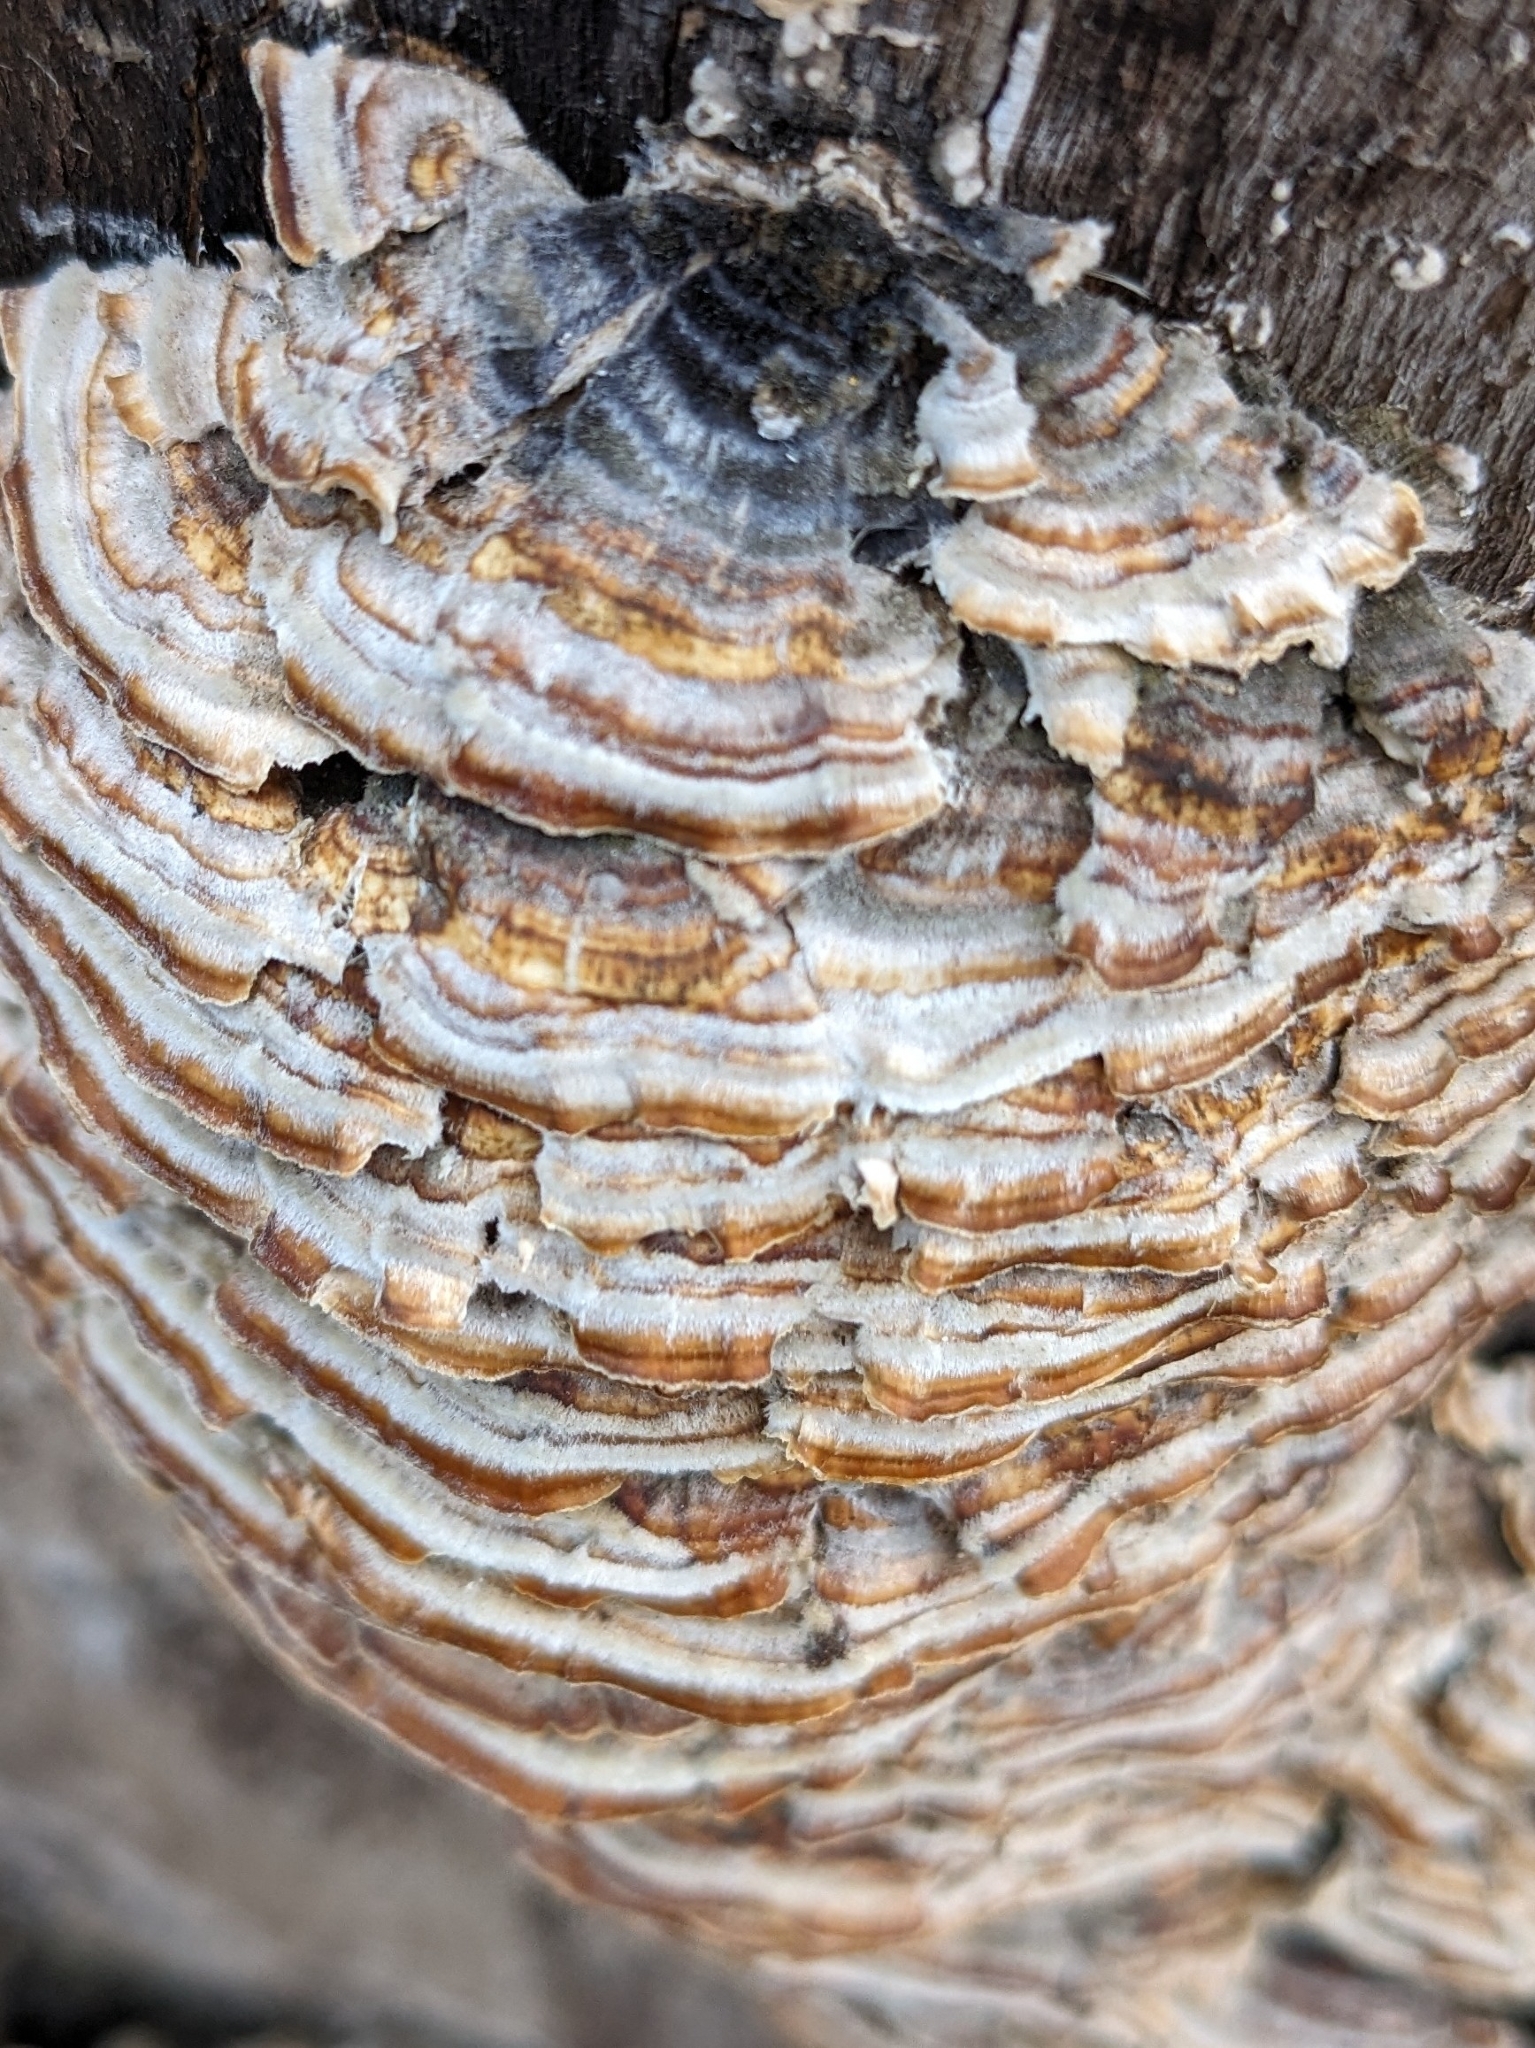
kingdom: Fungi
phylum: Basidiomycota
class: Agaricomycetes
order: Polyporales
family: Polyporaceae
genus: Trametes
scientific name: Trametes versicolor
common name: Turkeytail
